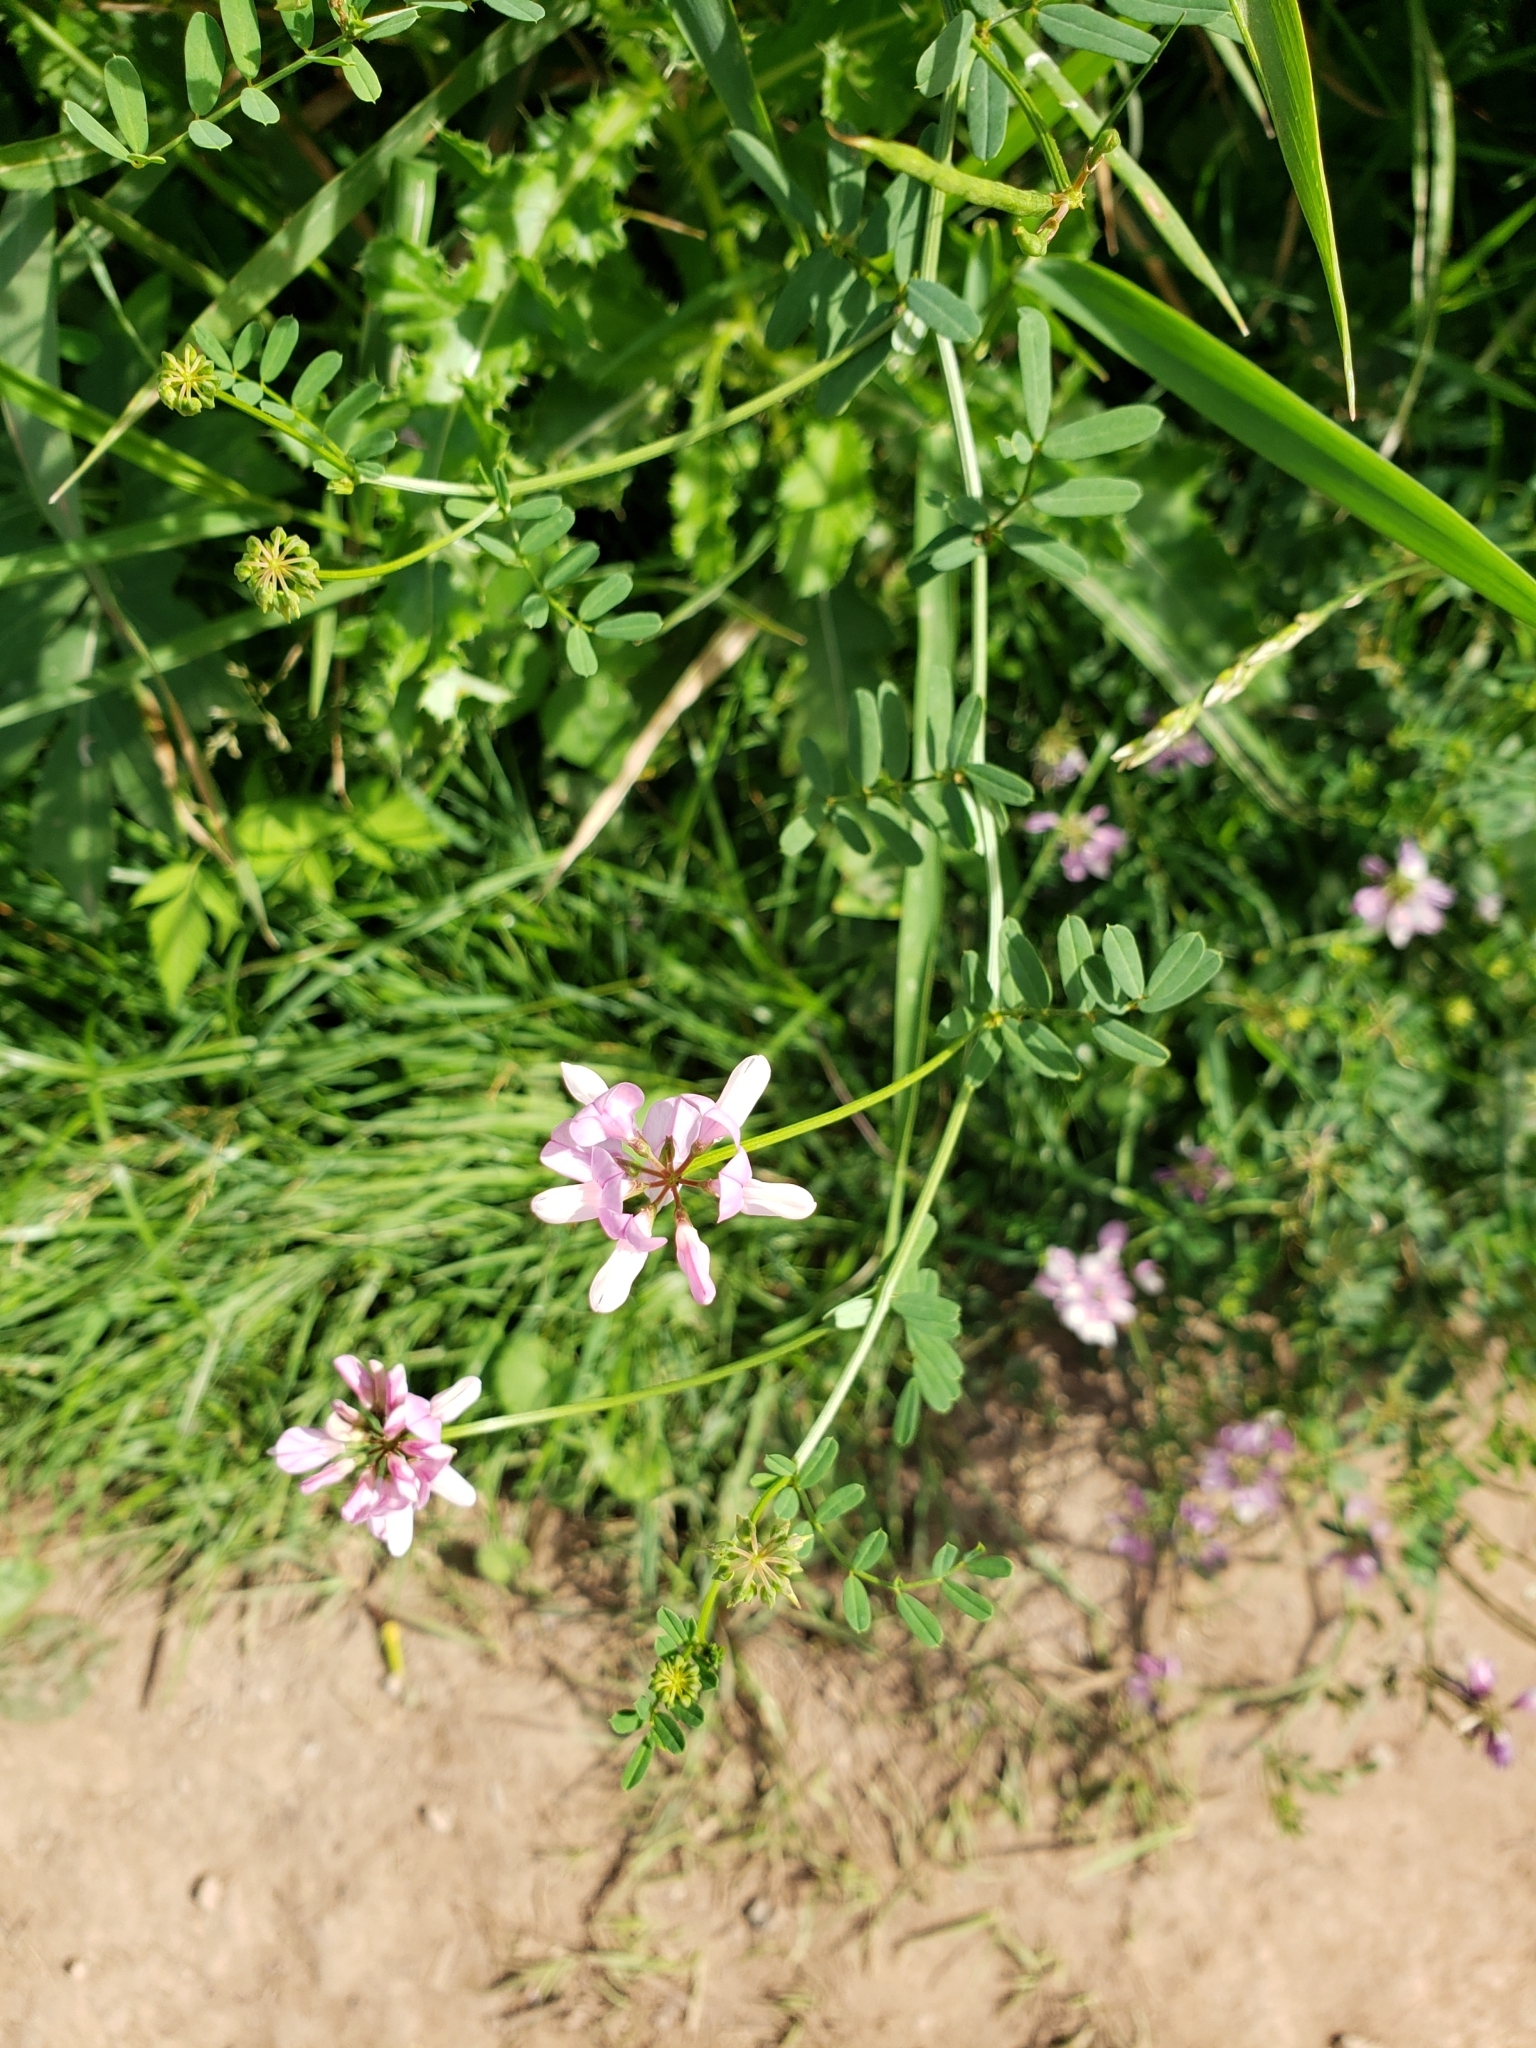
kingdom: Plantae
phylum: Tracheophyta
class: Magnoliopsida
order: Fabales
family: Fabaceae
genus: Coronilla
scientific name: Coronilla varia
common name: Crownvetch
